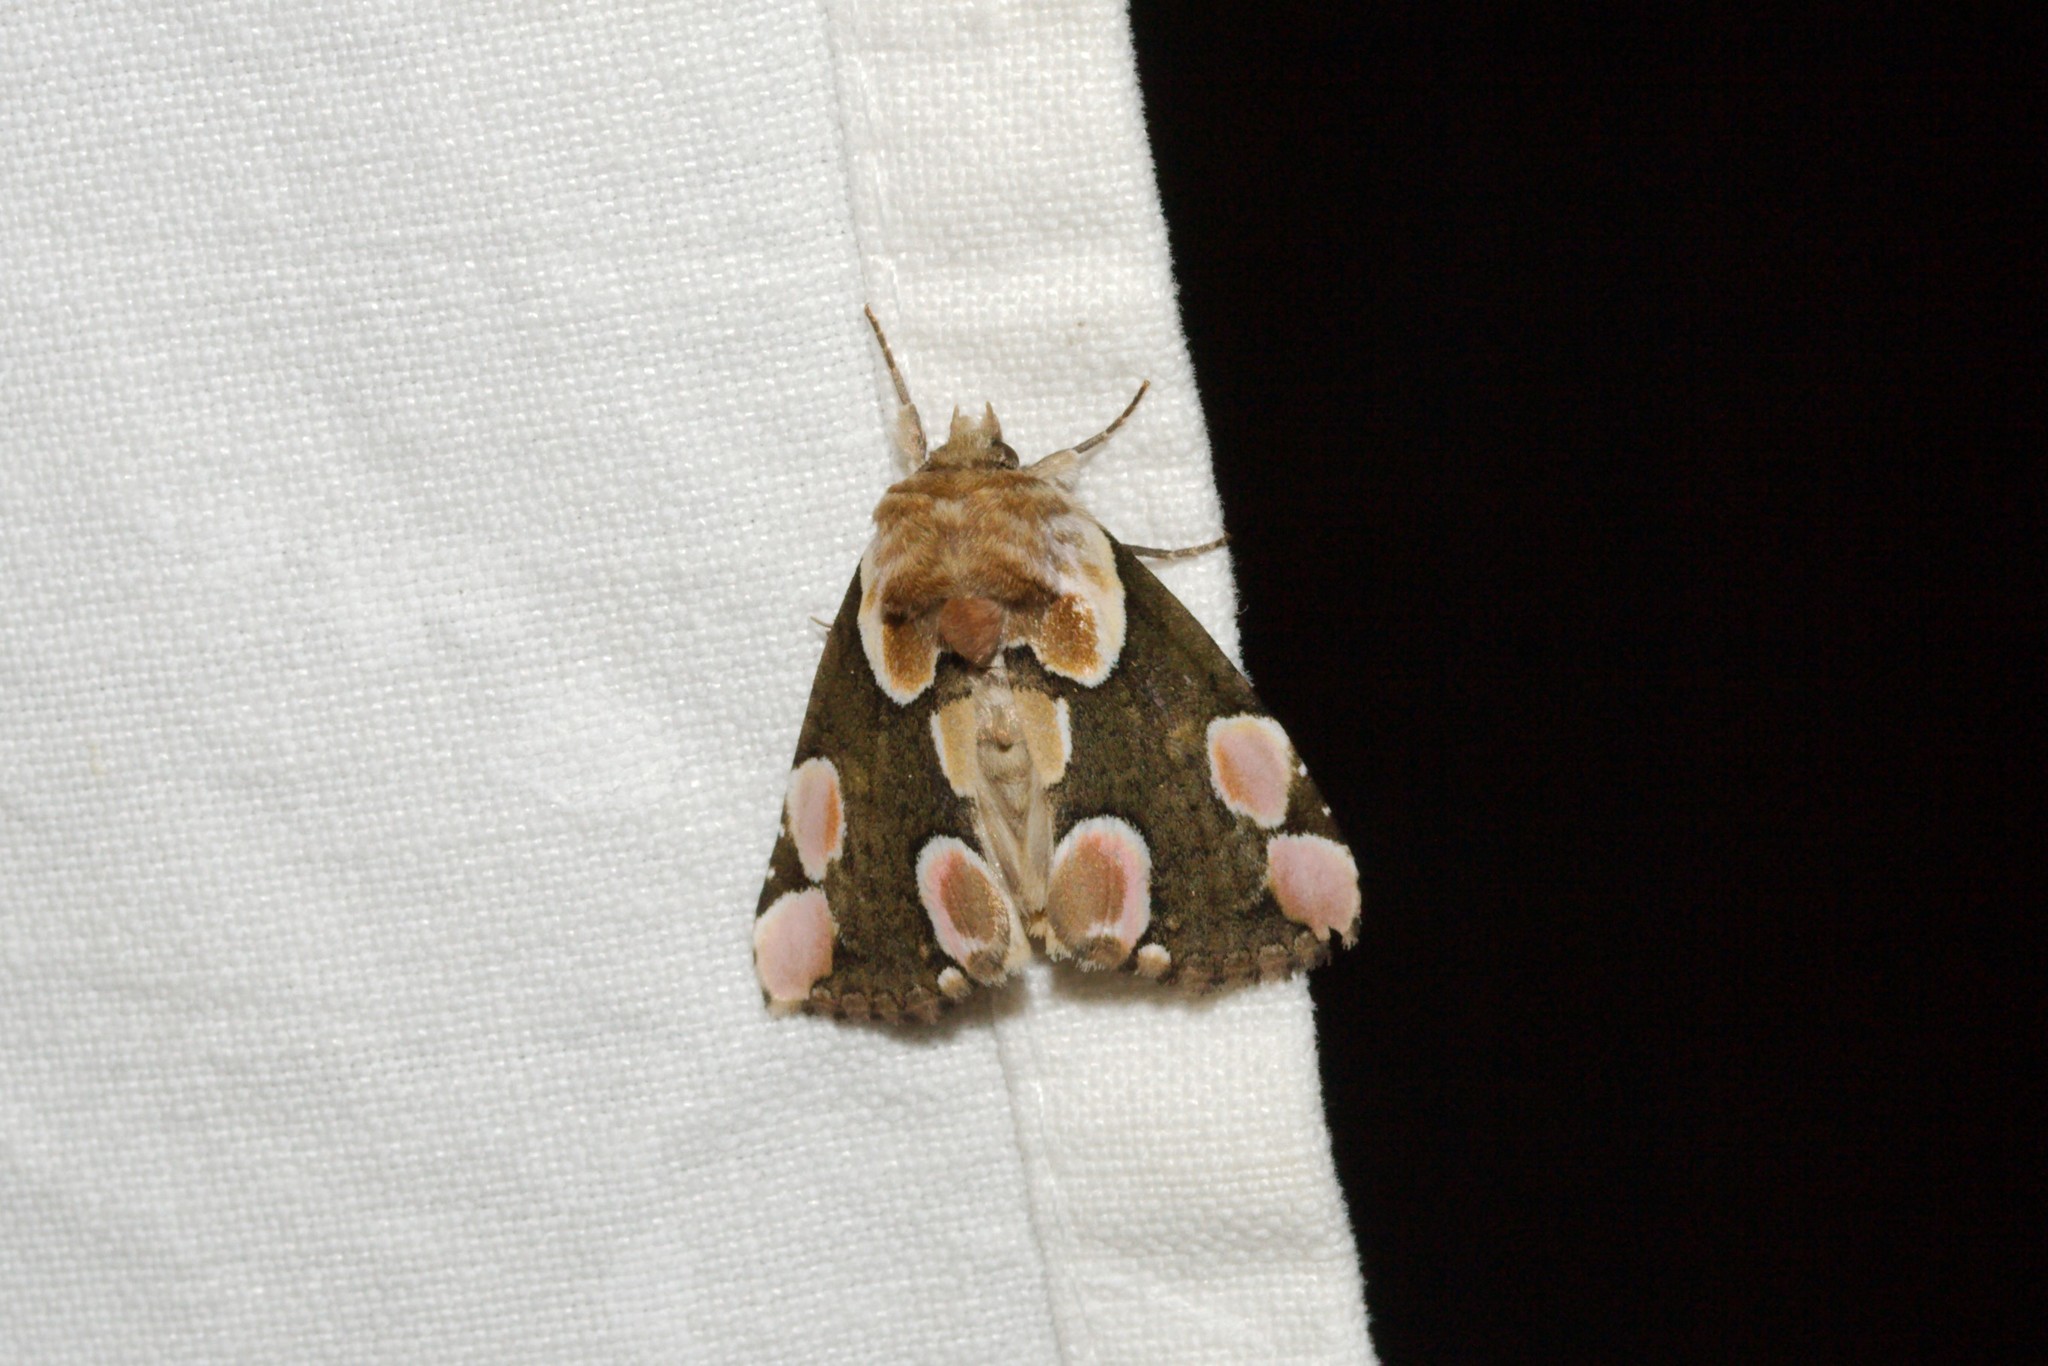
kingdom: Animalia
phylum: Arthropoda
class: Insecta
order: Lepidoptera
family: Drepanidae
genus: Thyatira
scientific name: Thyatira batis
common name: Peach blossom
